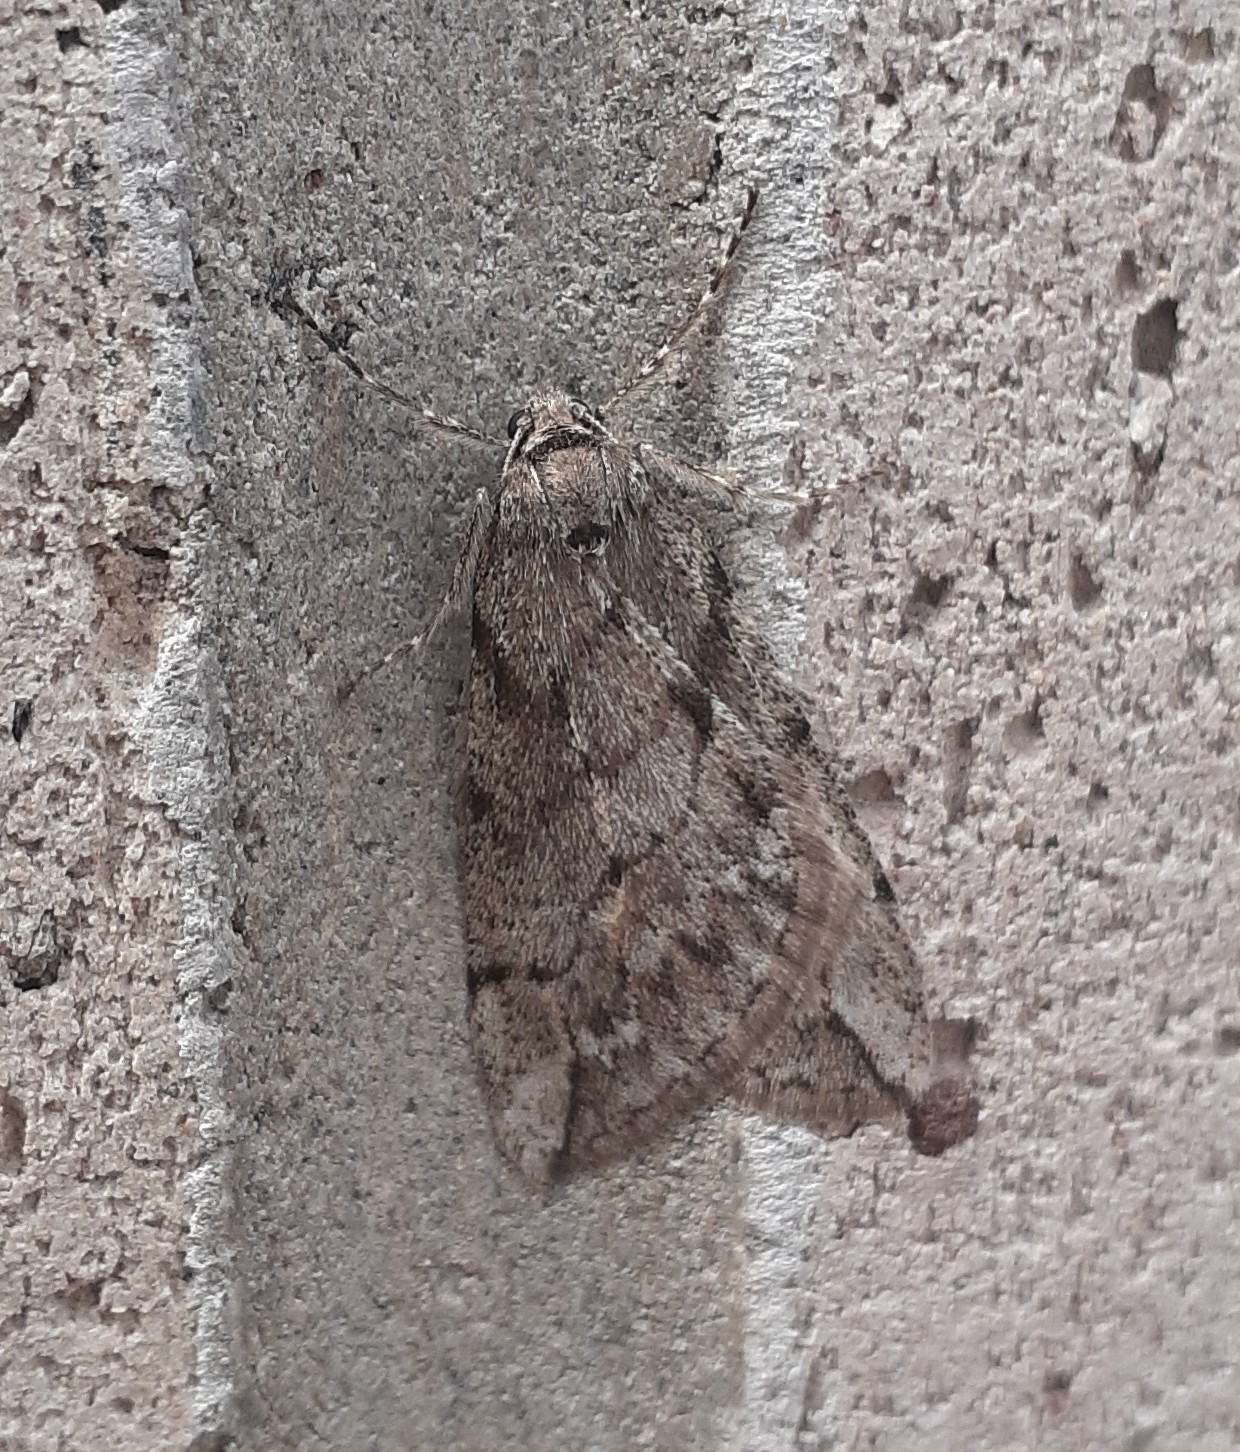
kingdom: Animalia
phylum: Arthropoda
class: Insecta
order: Lepidoptera
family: Geometridae
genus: Paleacrita
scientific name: Paleacrita vernata
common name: Spring cankerworm
